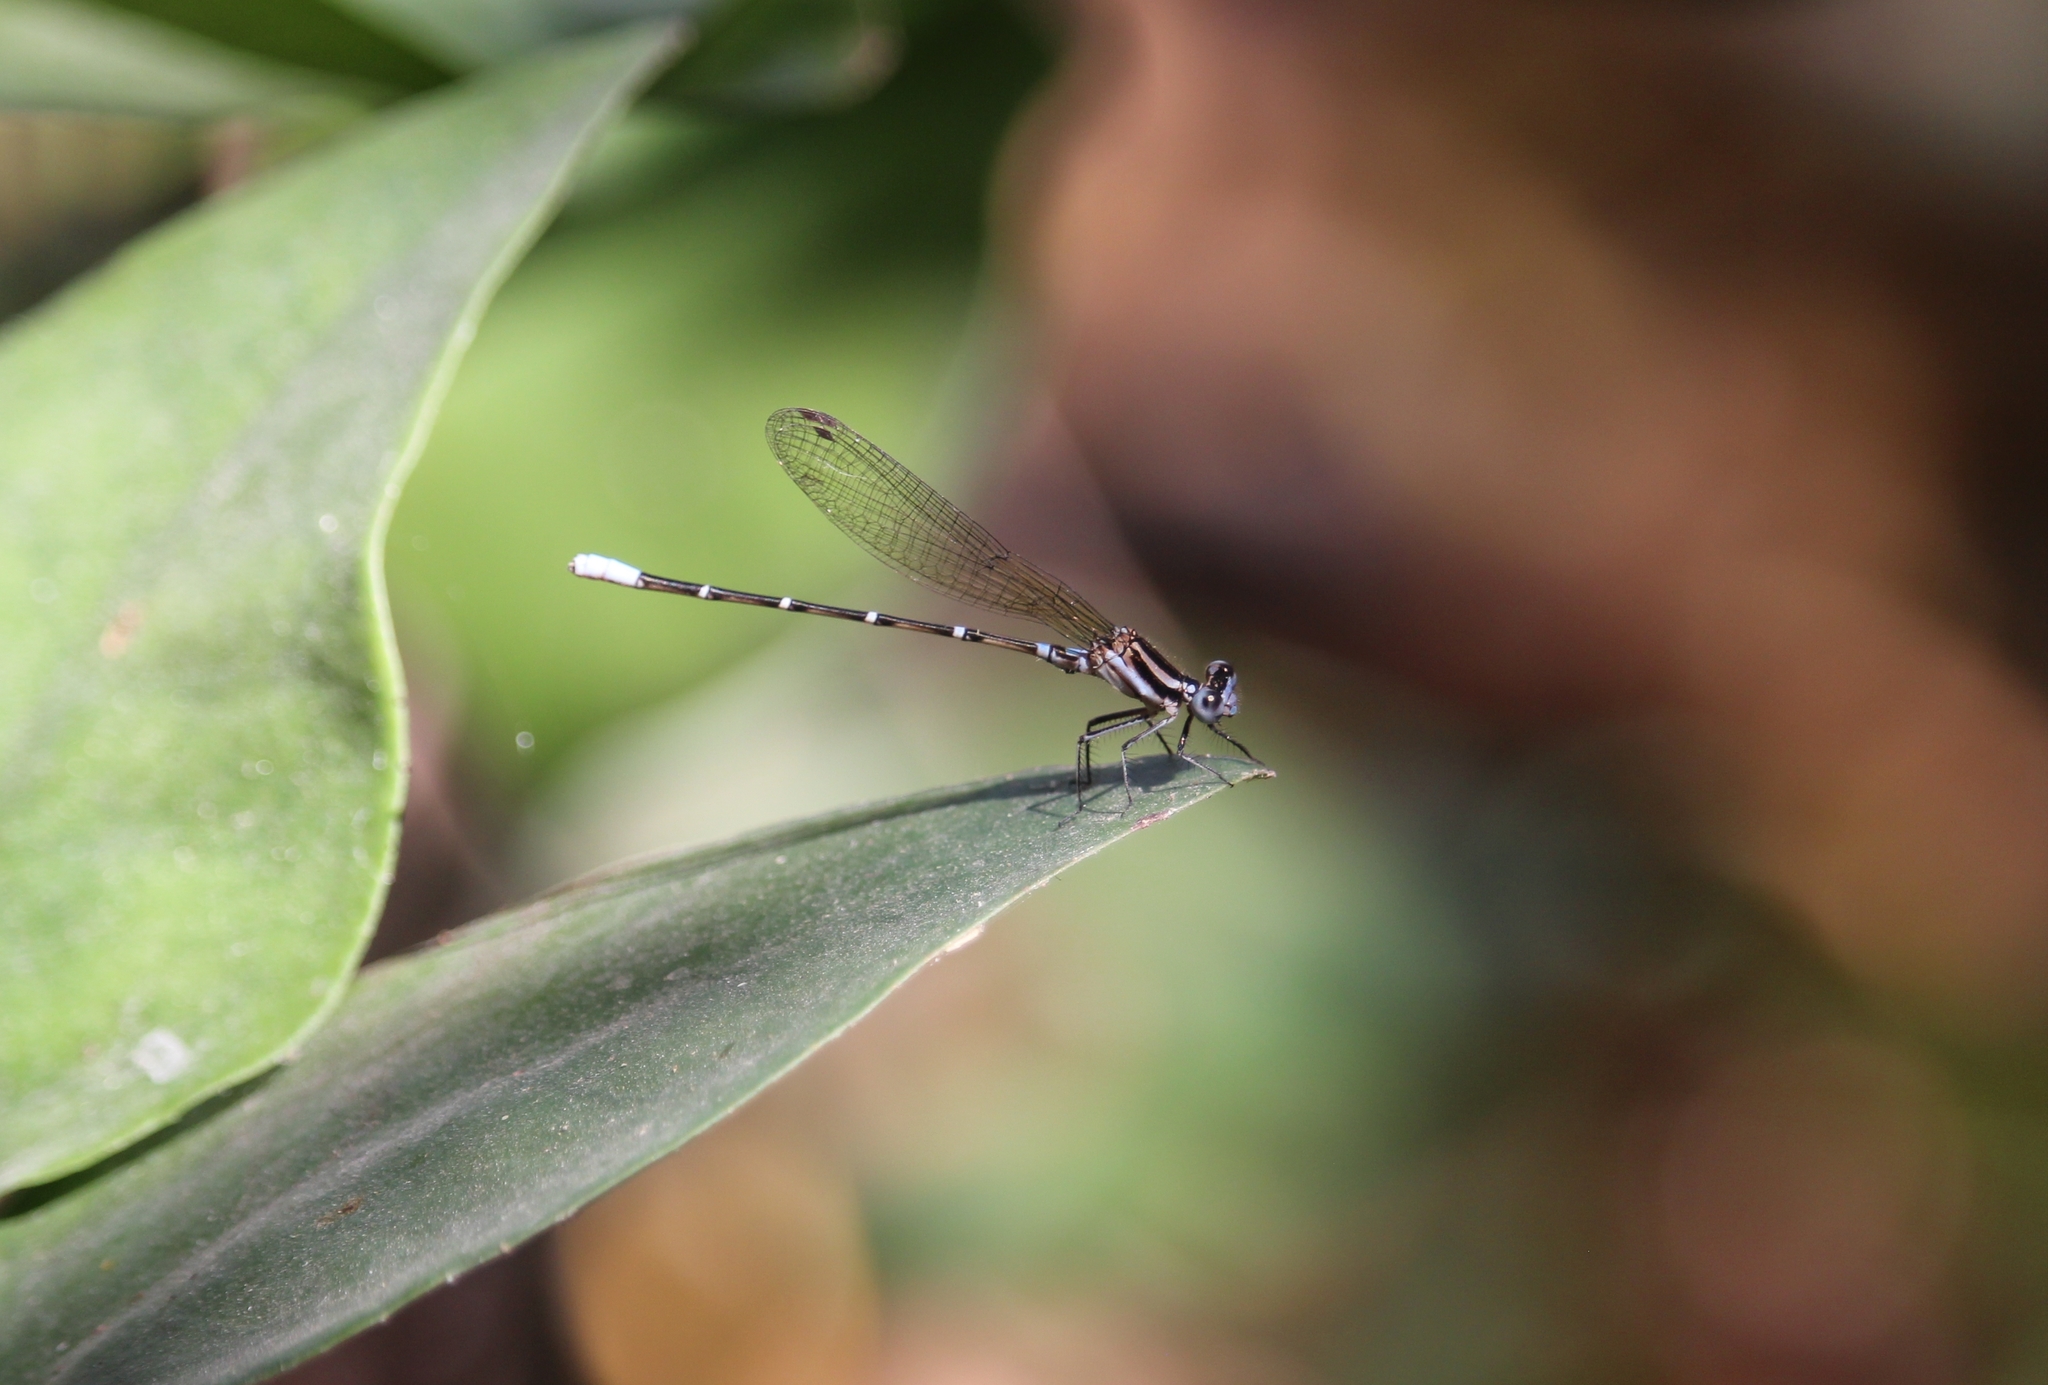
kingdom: Animalia
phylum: Arthropoda
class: Insecta
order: Odonata
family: Coenagrionidae
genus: Argia
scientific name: Argia gaumeri
